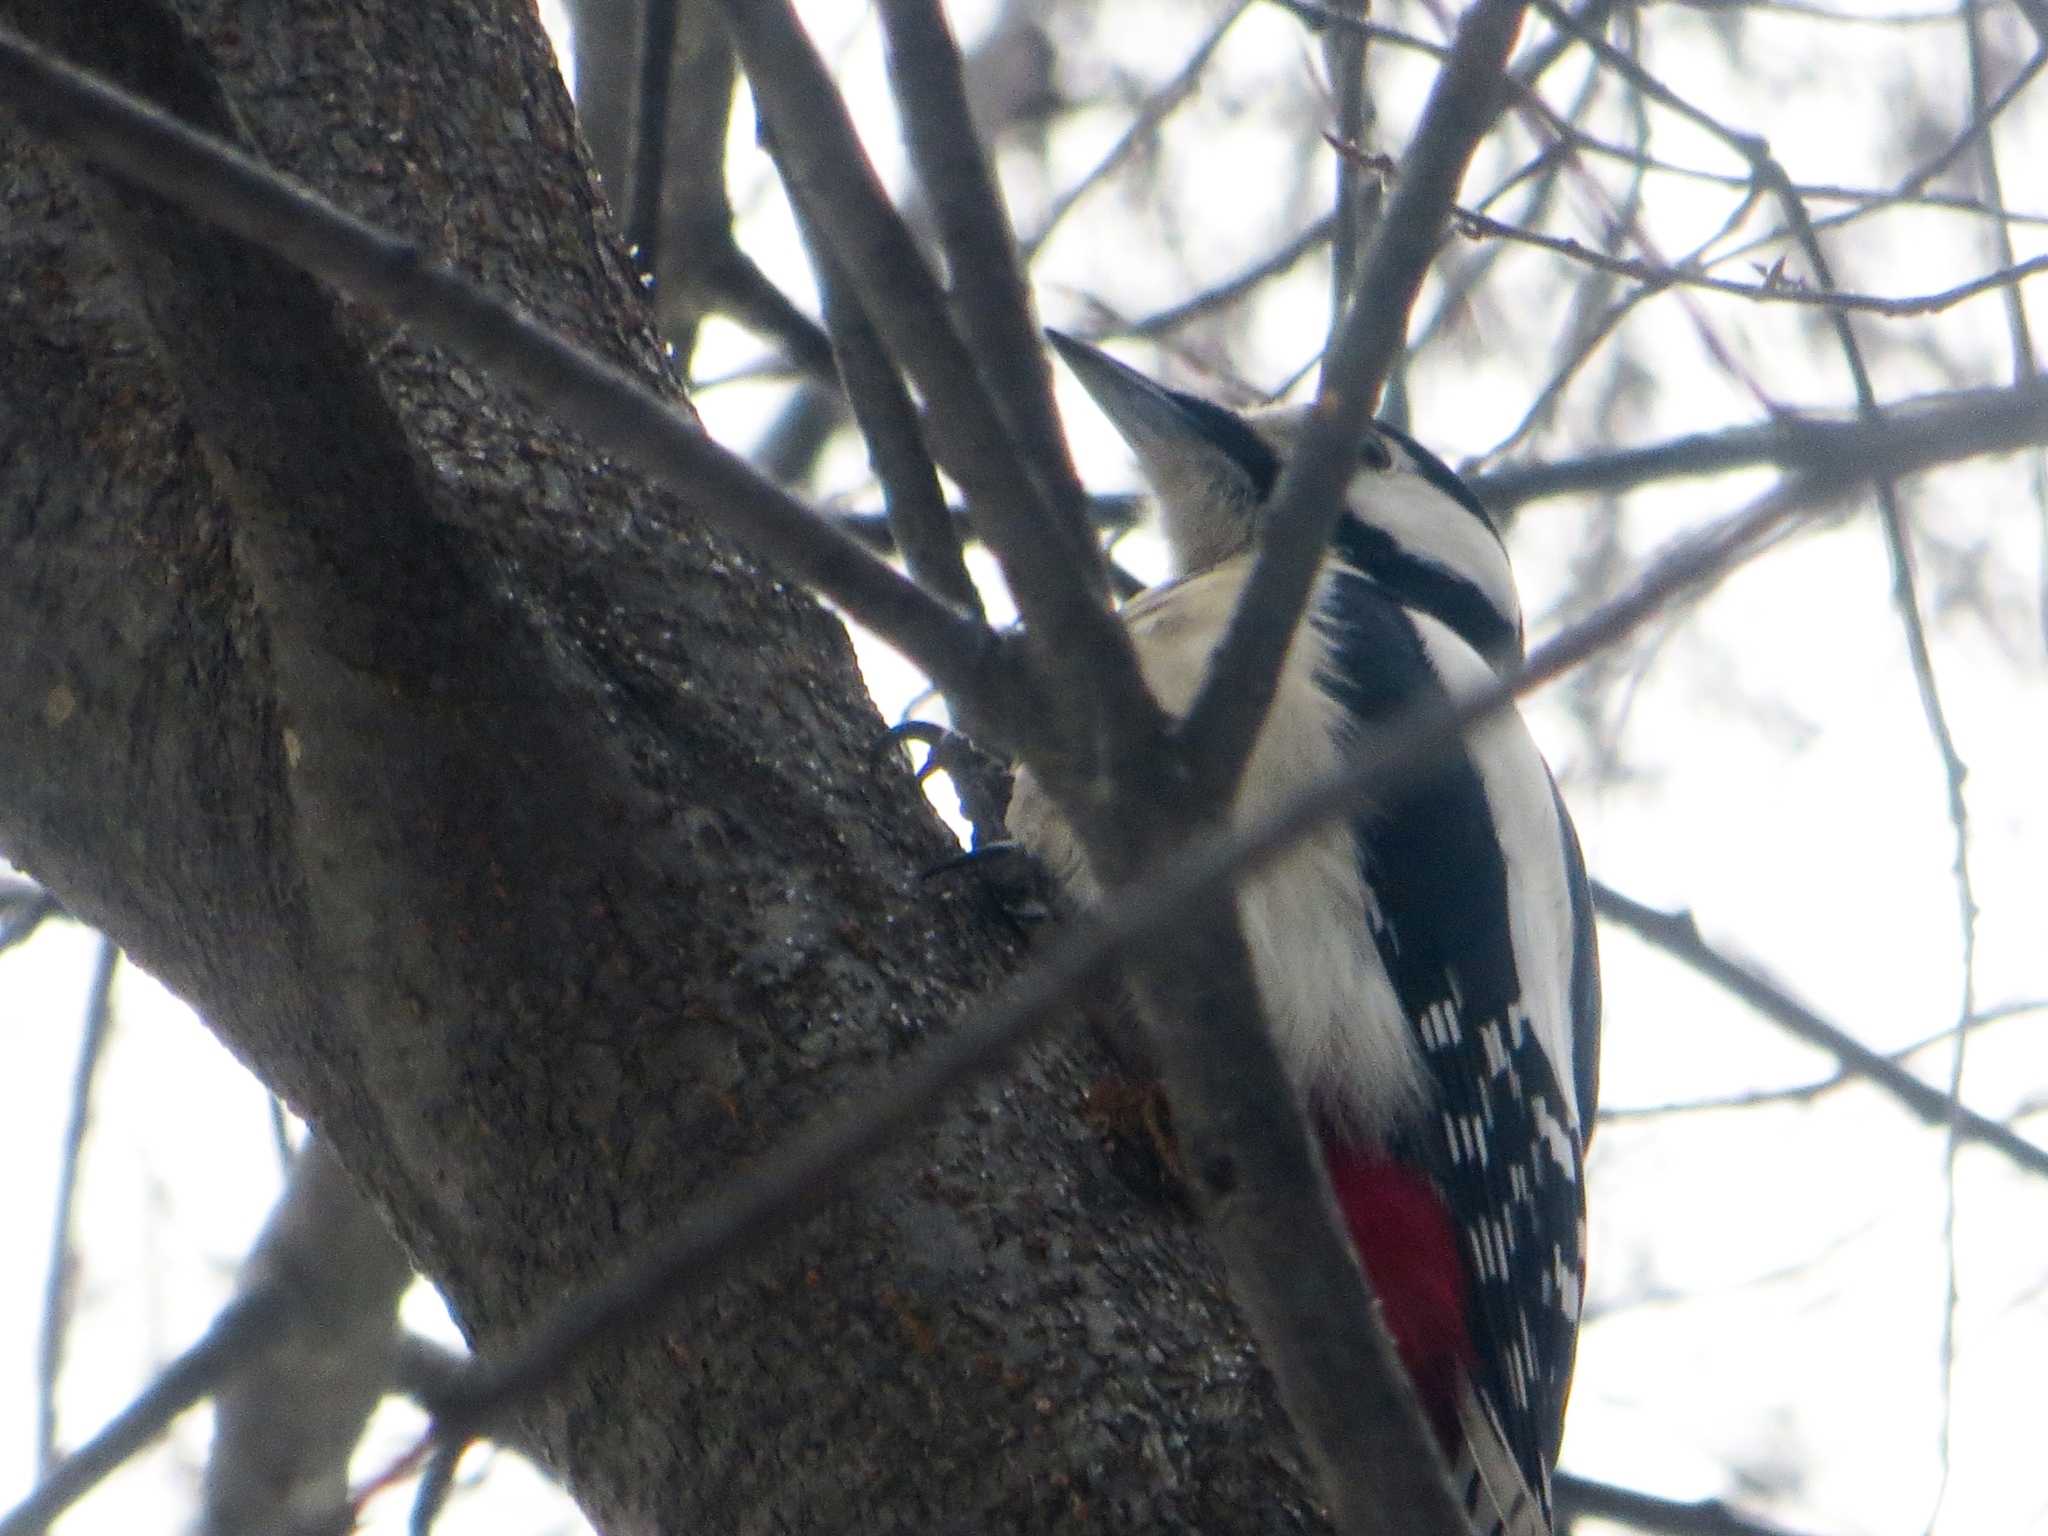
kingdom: Animalia
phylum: Chordata
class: Aves
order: Piciformes
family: Picidae
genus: Dendrocopos
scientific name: Dendrocopos major
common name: Great spotted woodpecker
